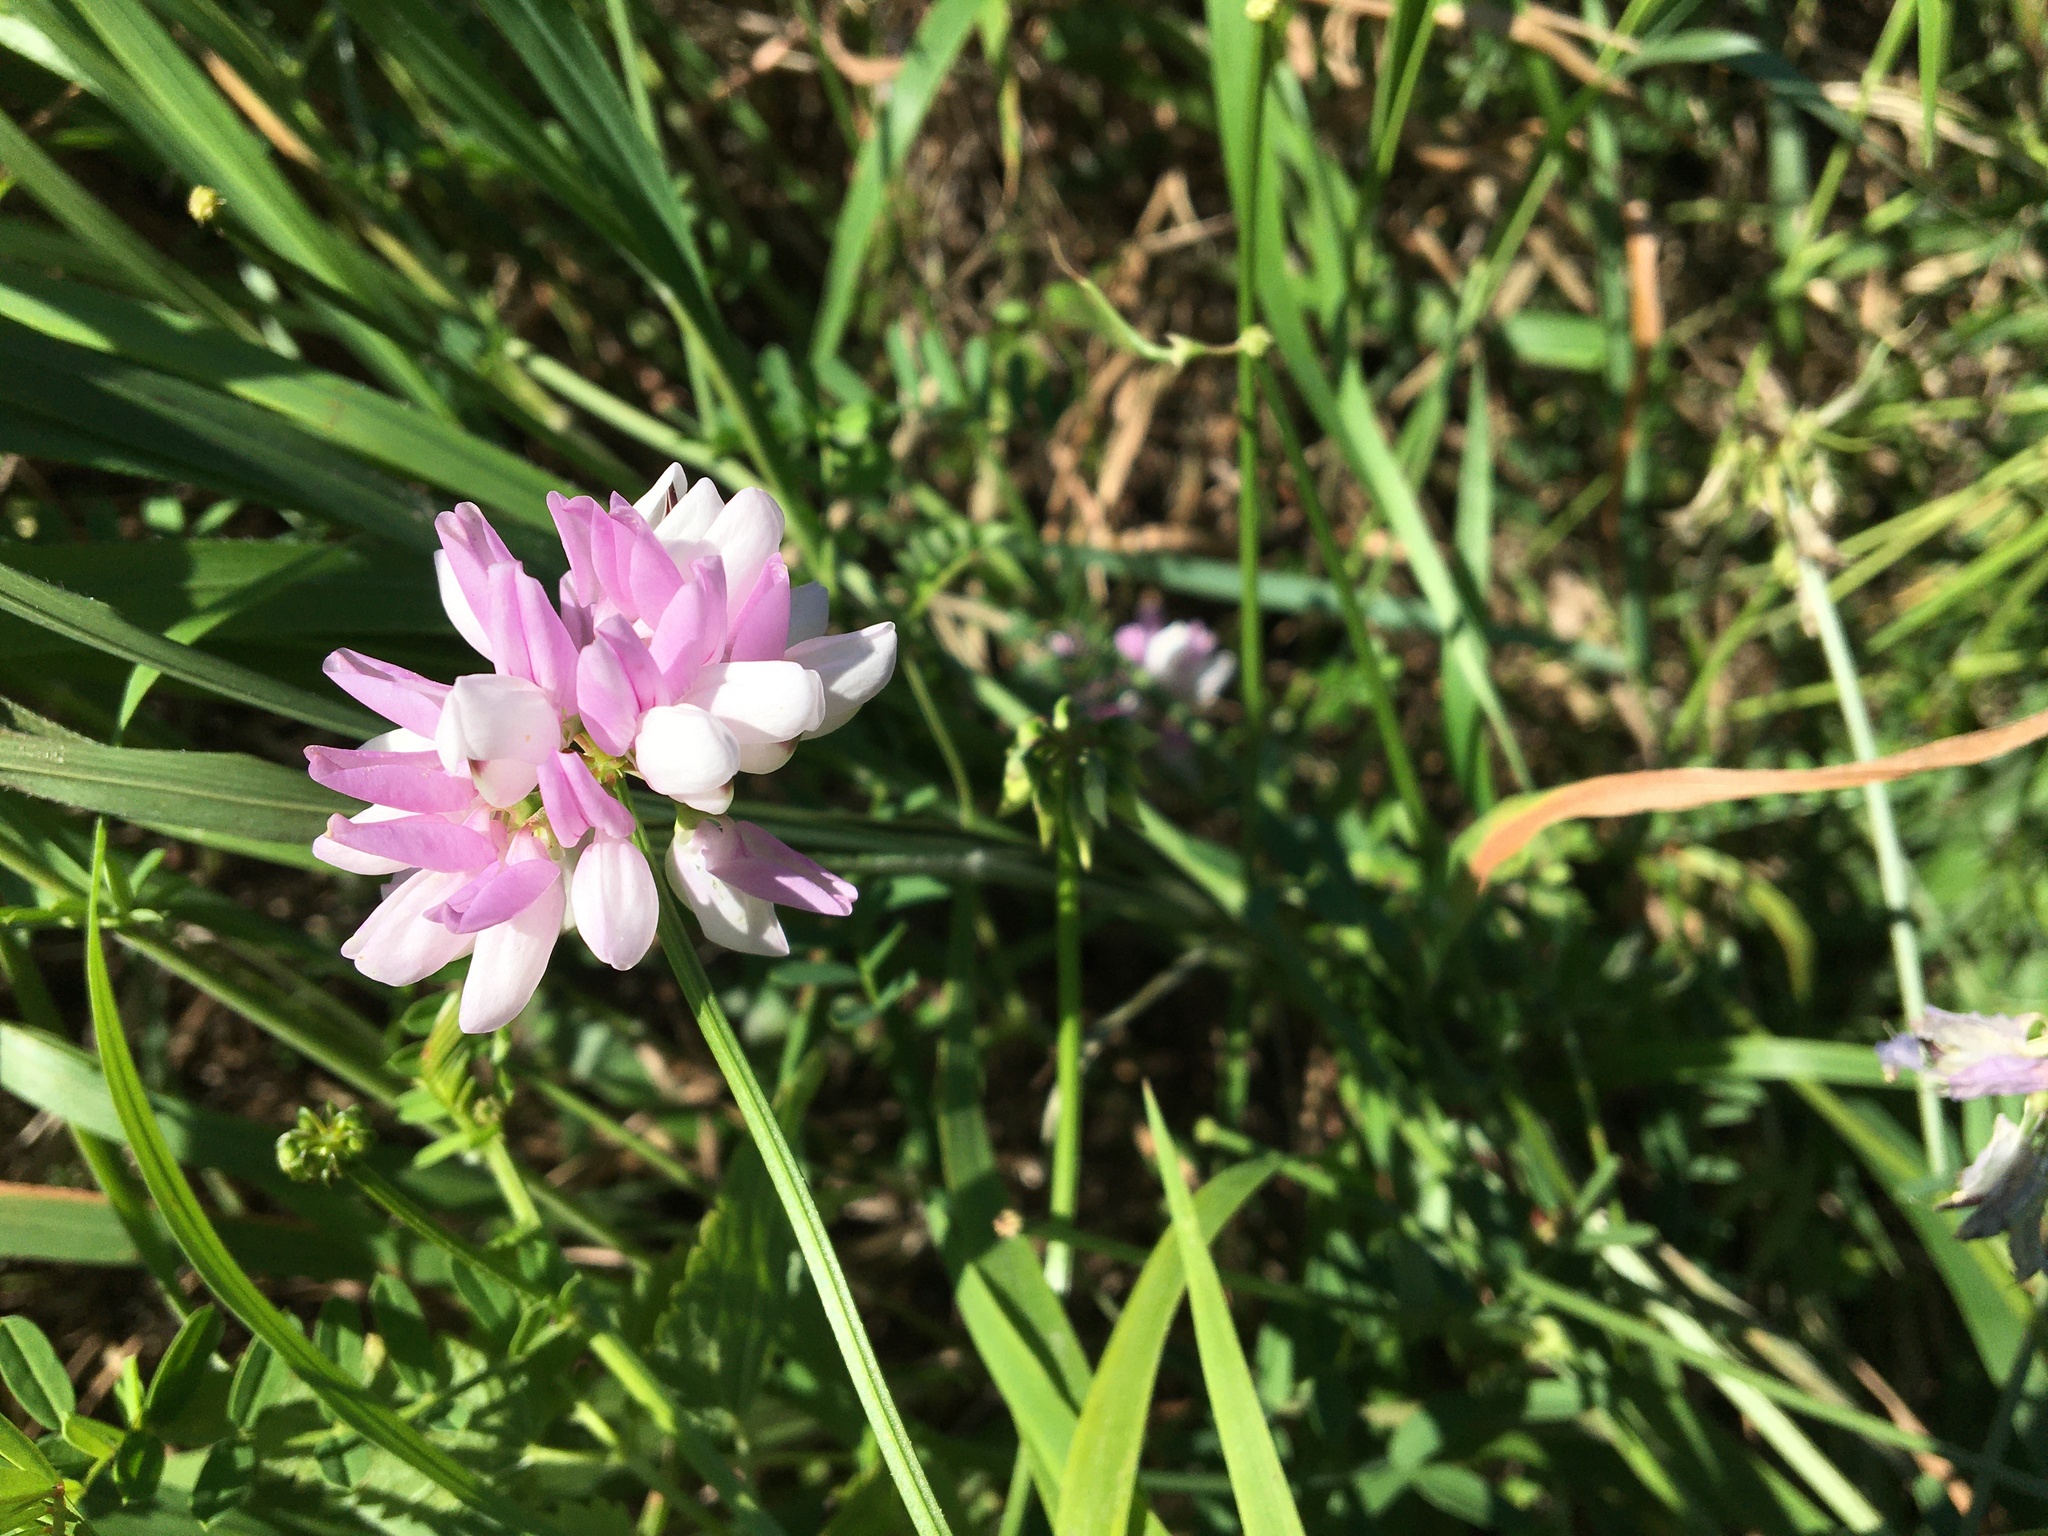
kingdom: Plantae
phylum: Tracheophyta
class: Magnoliopsida
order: Fabales
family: Fabaceae
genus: Coronilla
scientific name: Coronilla varia
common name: Crownvetch
